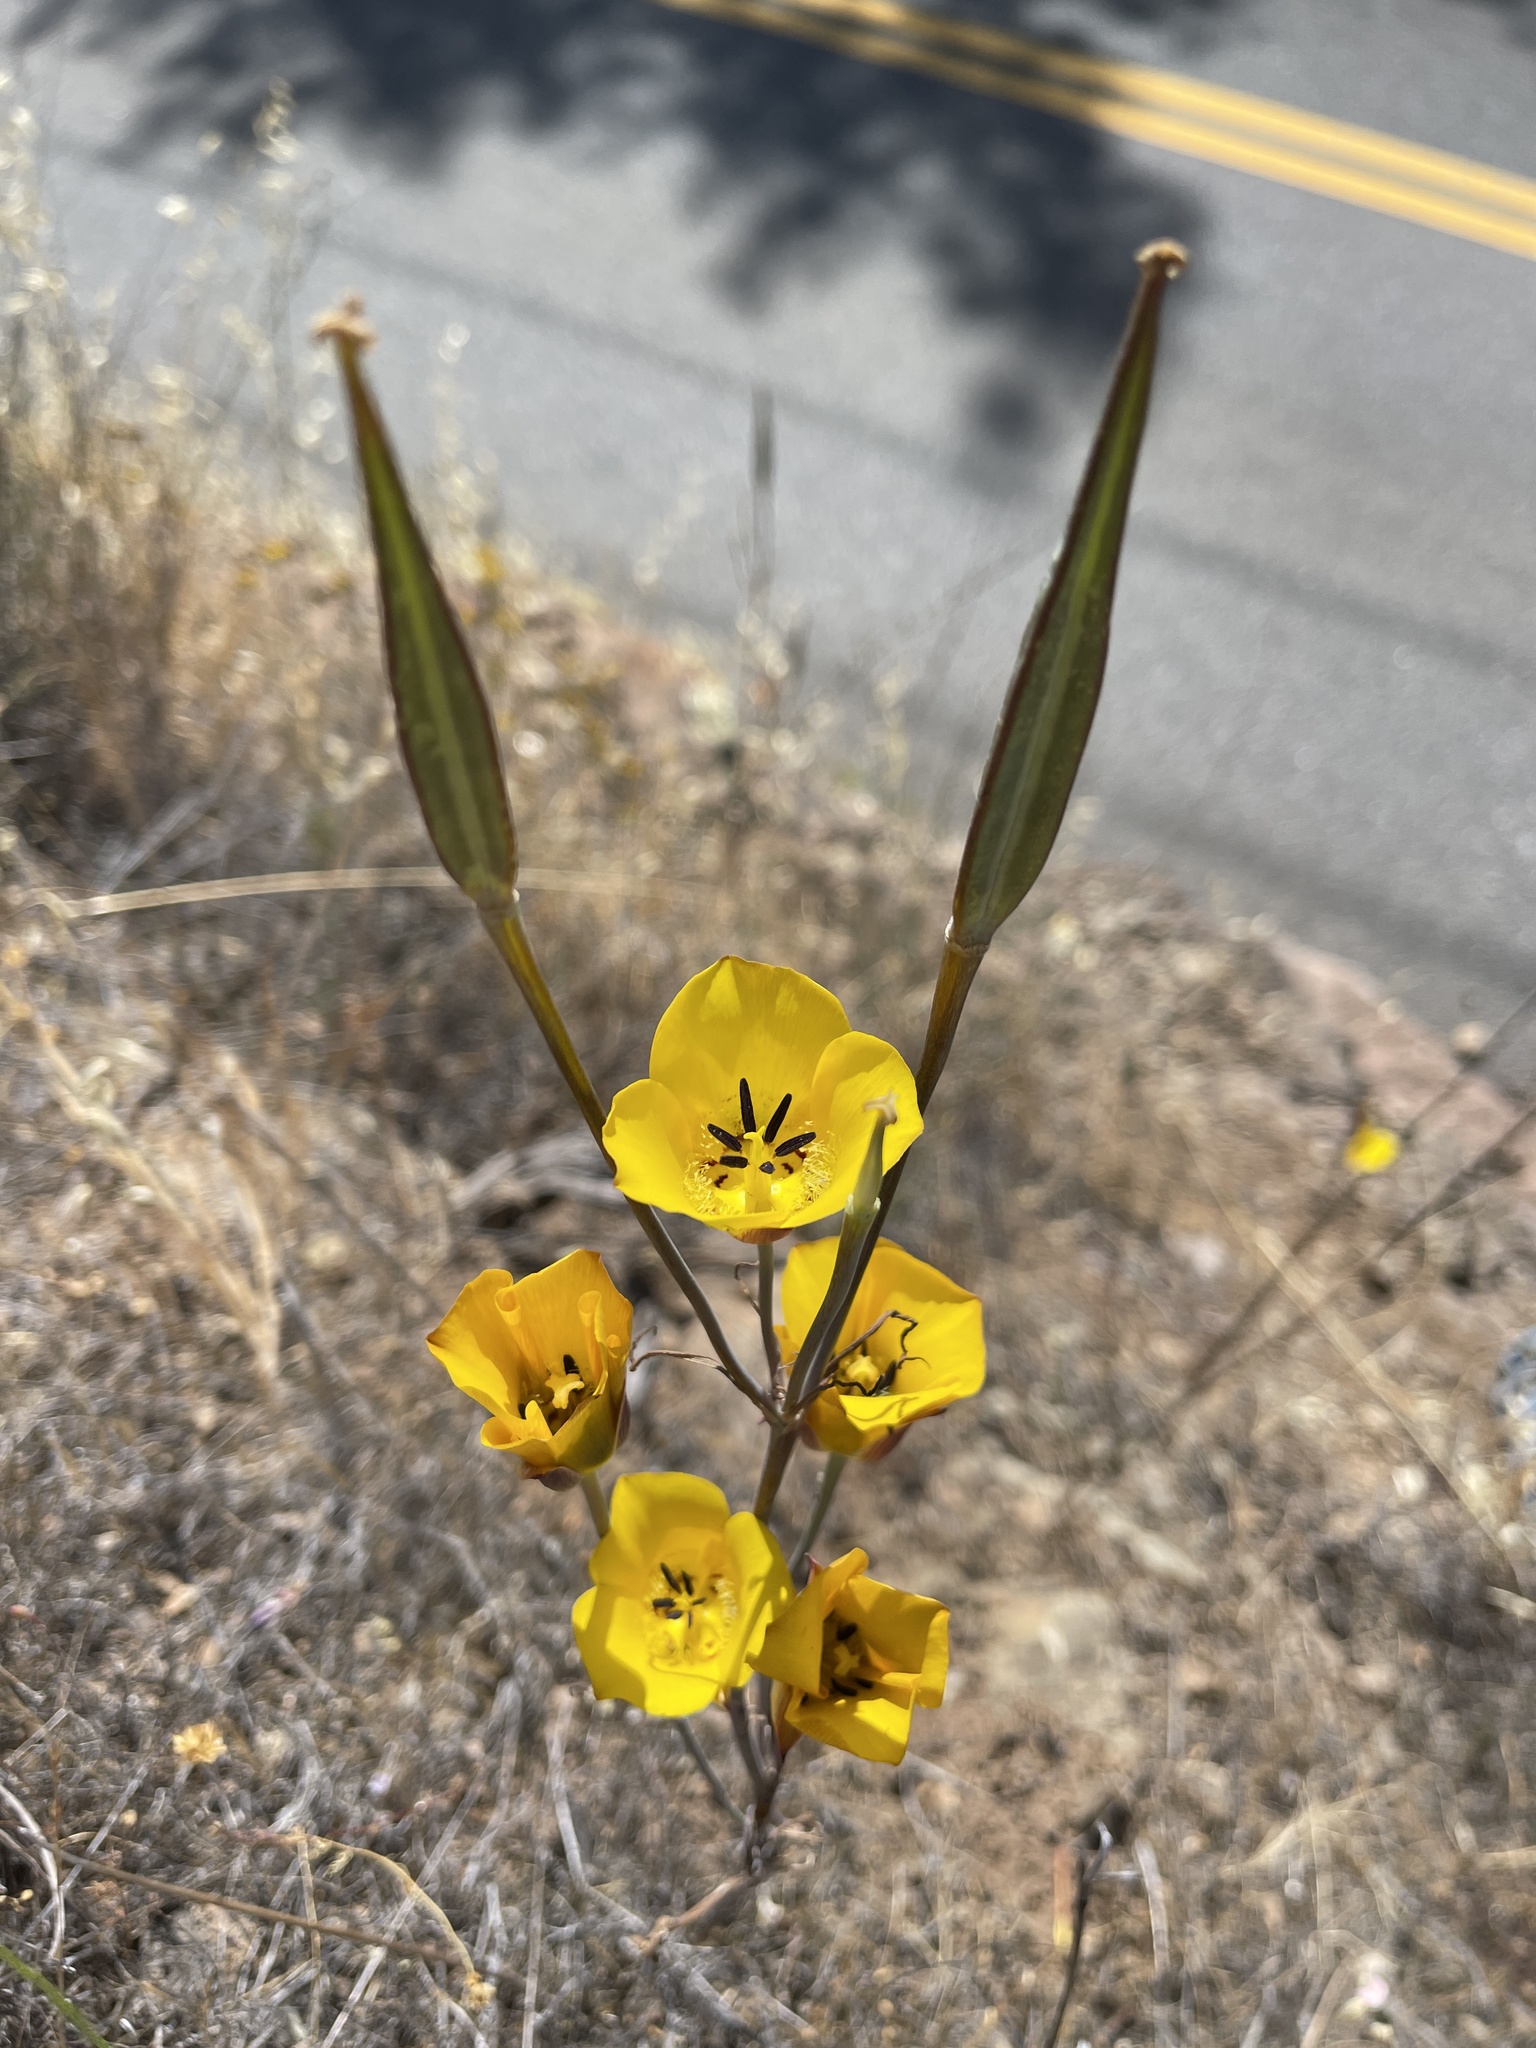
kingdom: Plantae
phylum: Tracheophyta
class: Liliopsida
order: Liliales
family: Liliaceae
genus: Calochortus
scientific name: Calochortus clavatus
